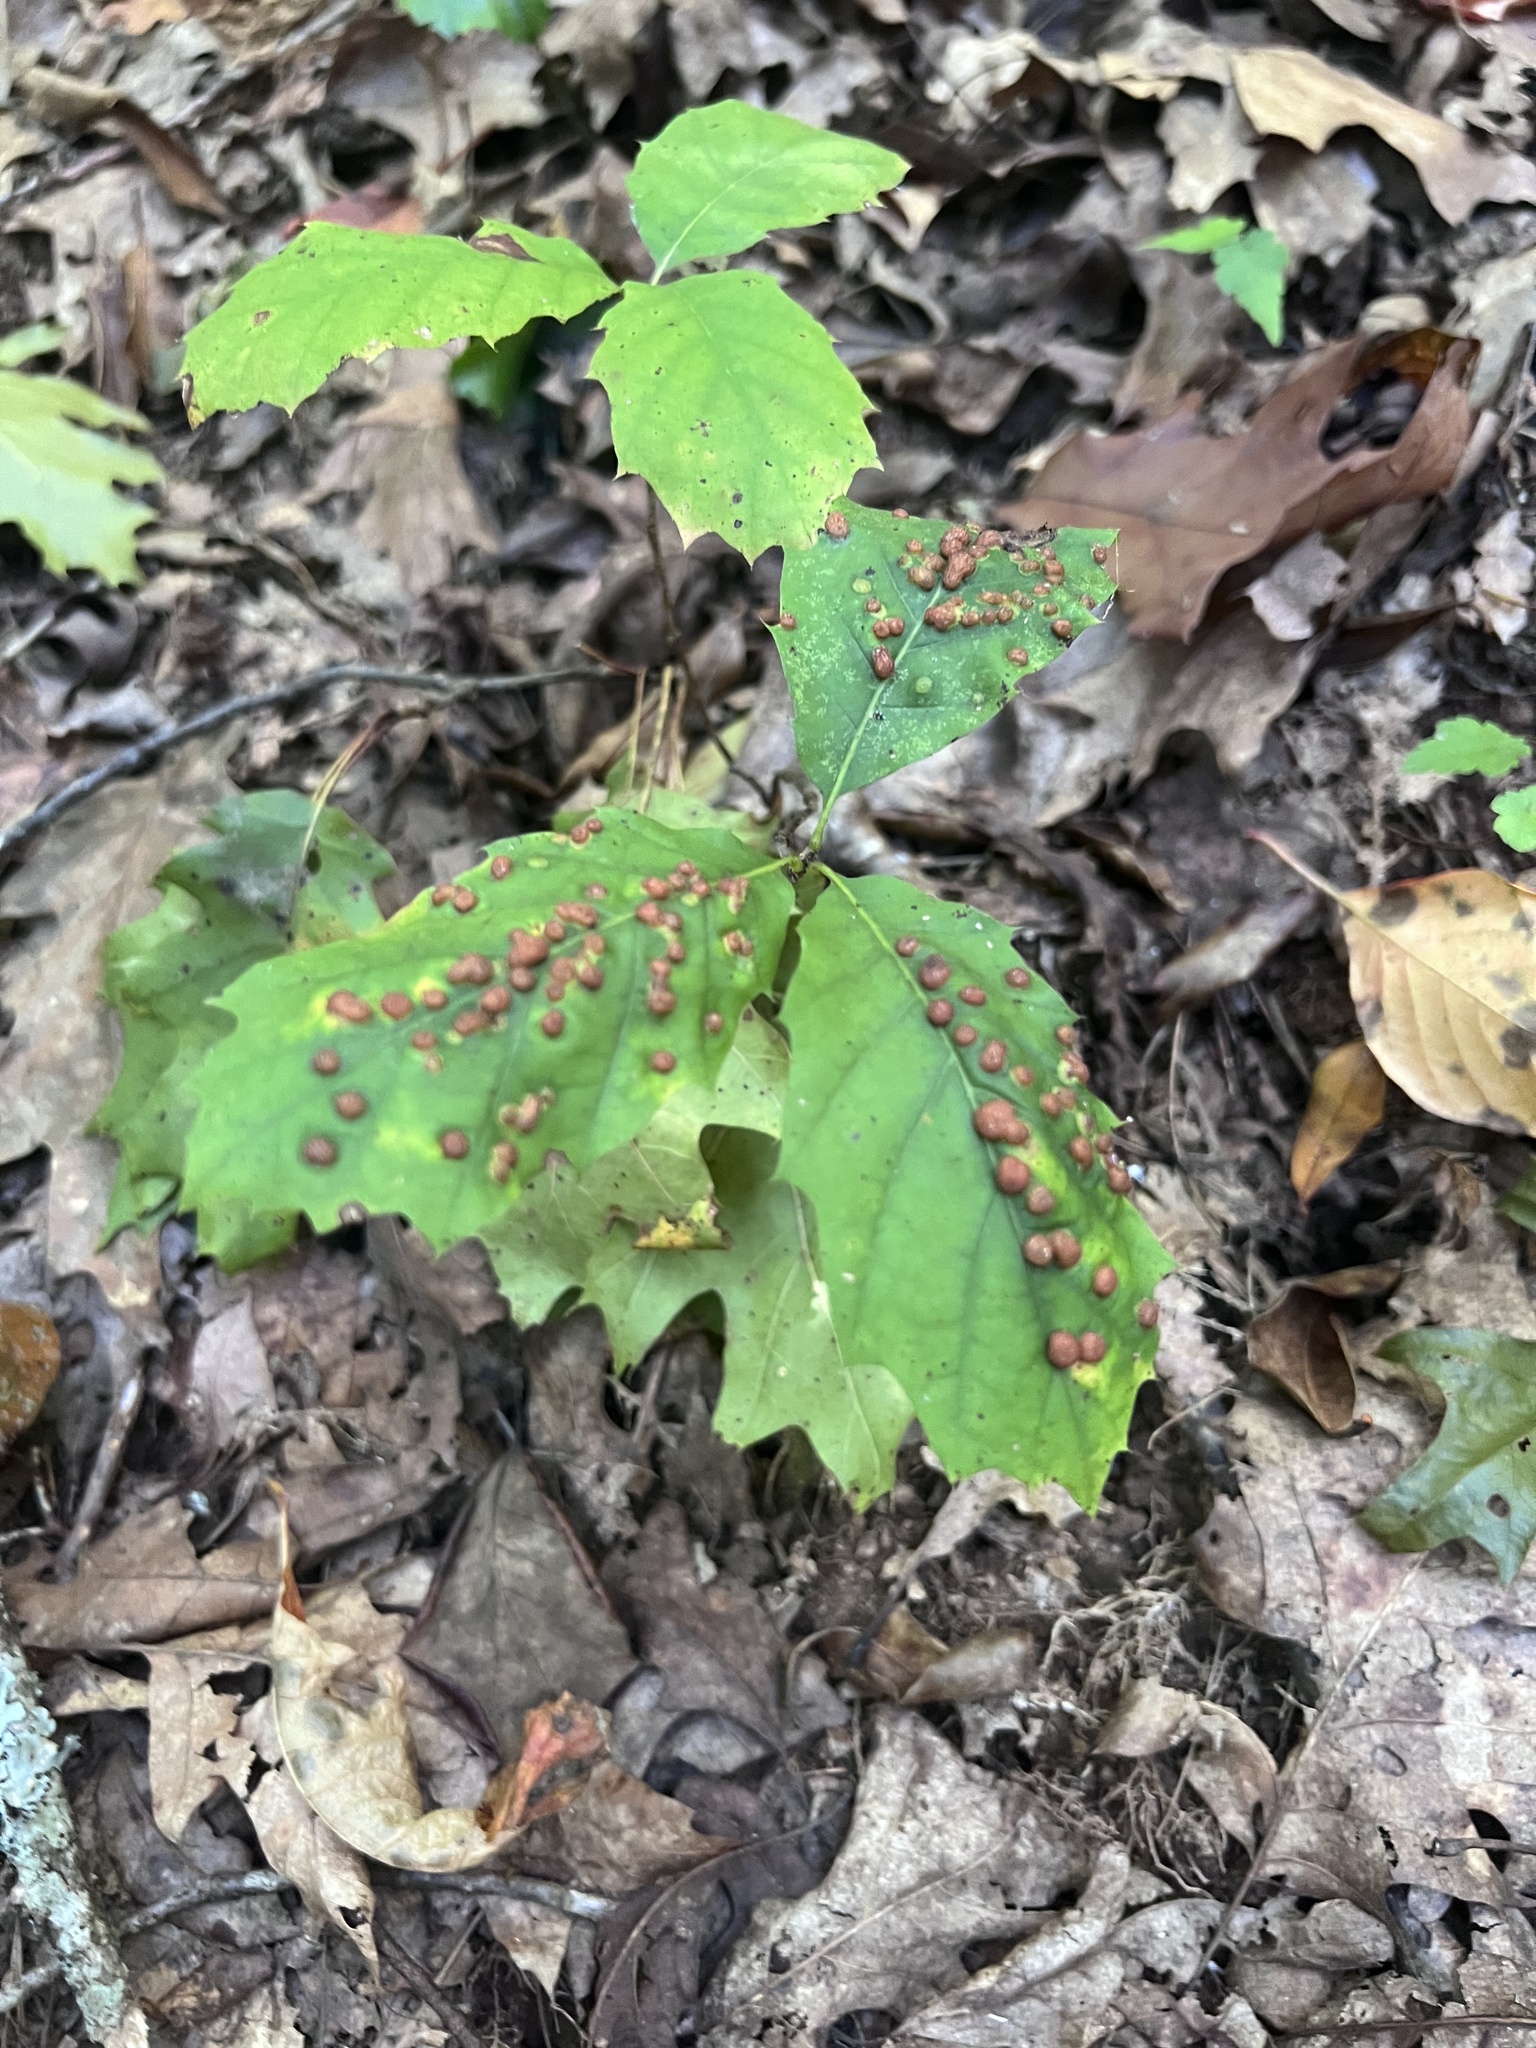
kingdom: Animalia
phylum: Arthropoda
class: Insecta
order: Diptera
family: Cecidomyiidae
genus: Polystepha
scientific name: Polystepha pilulae
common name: Oak leaf gall midge
